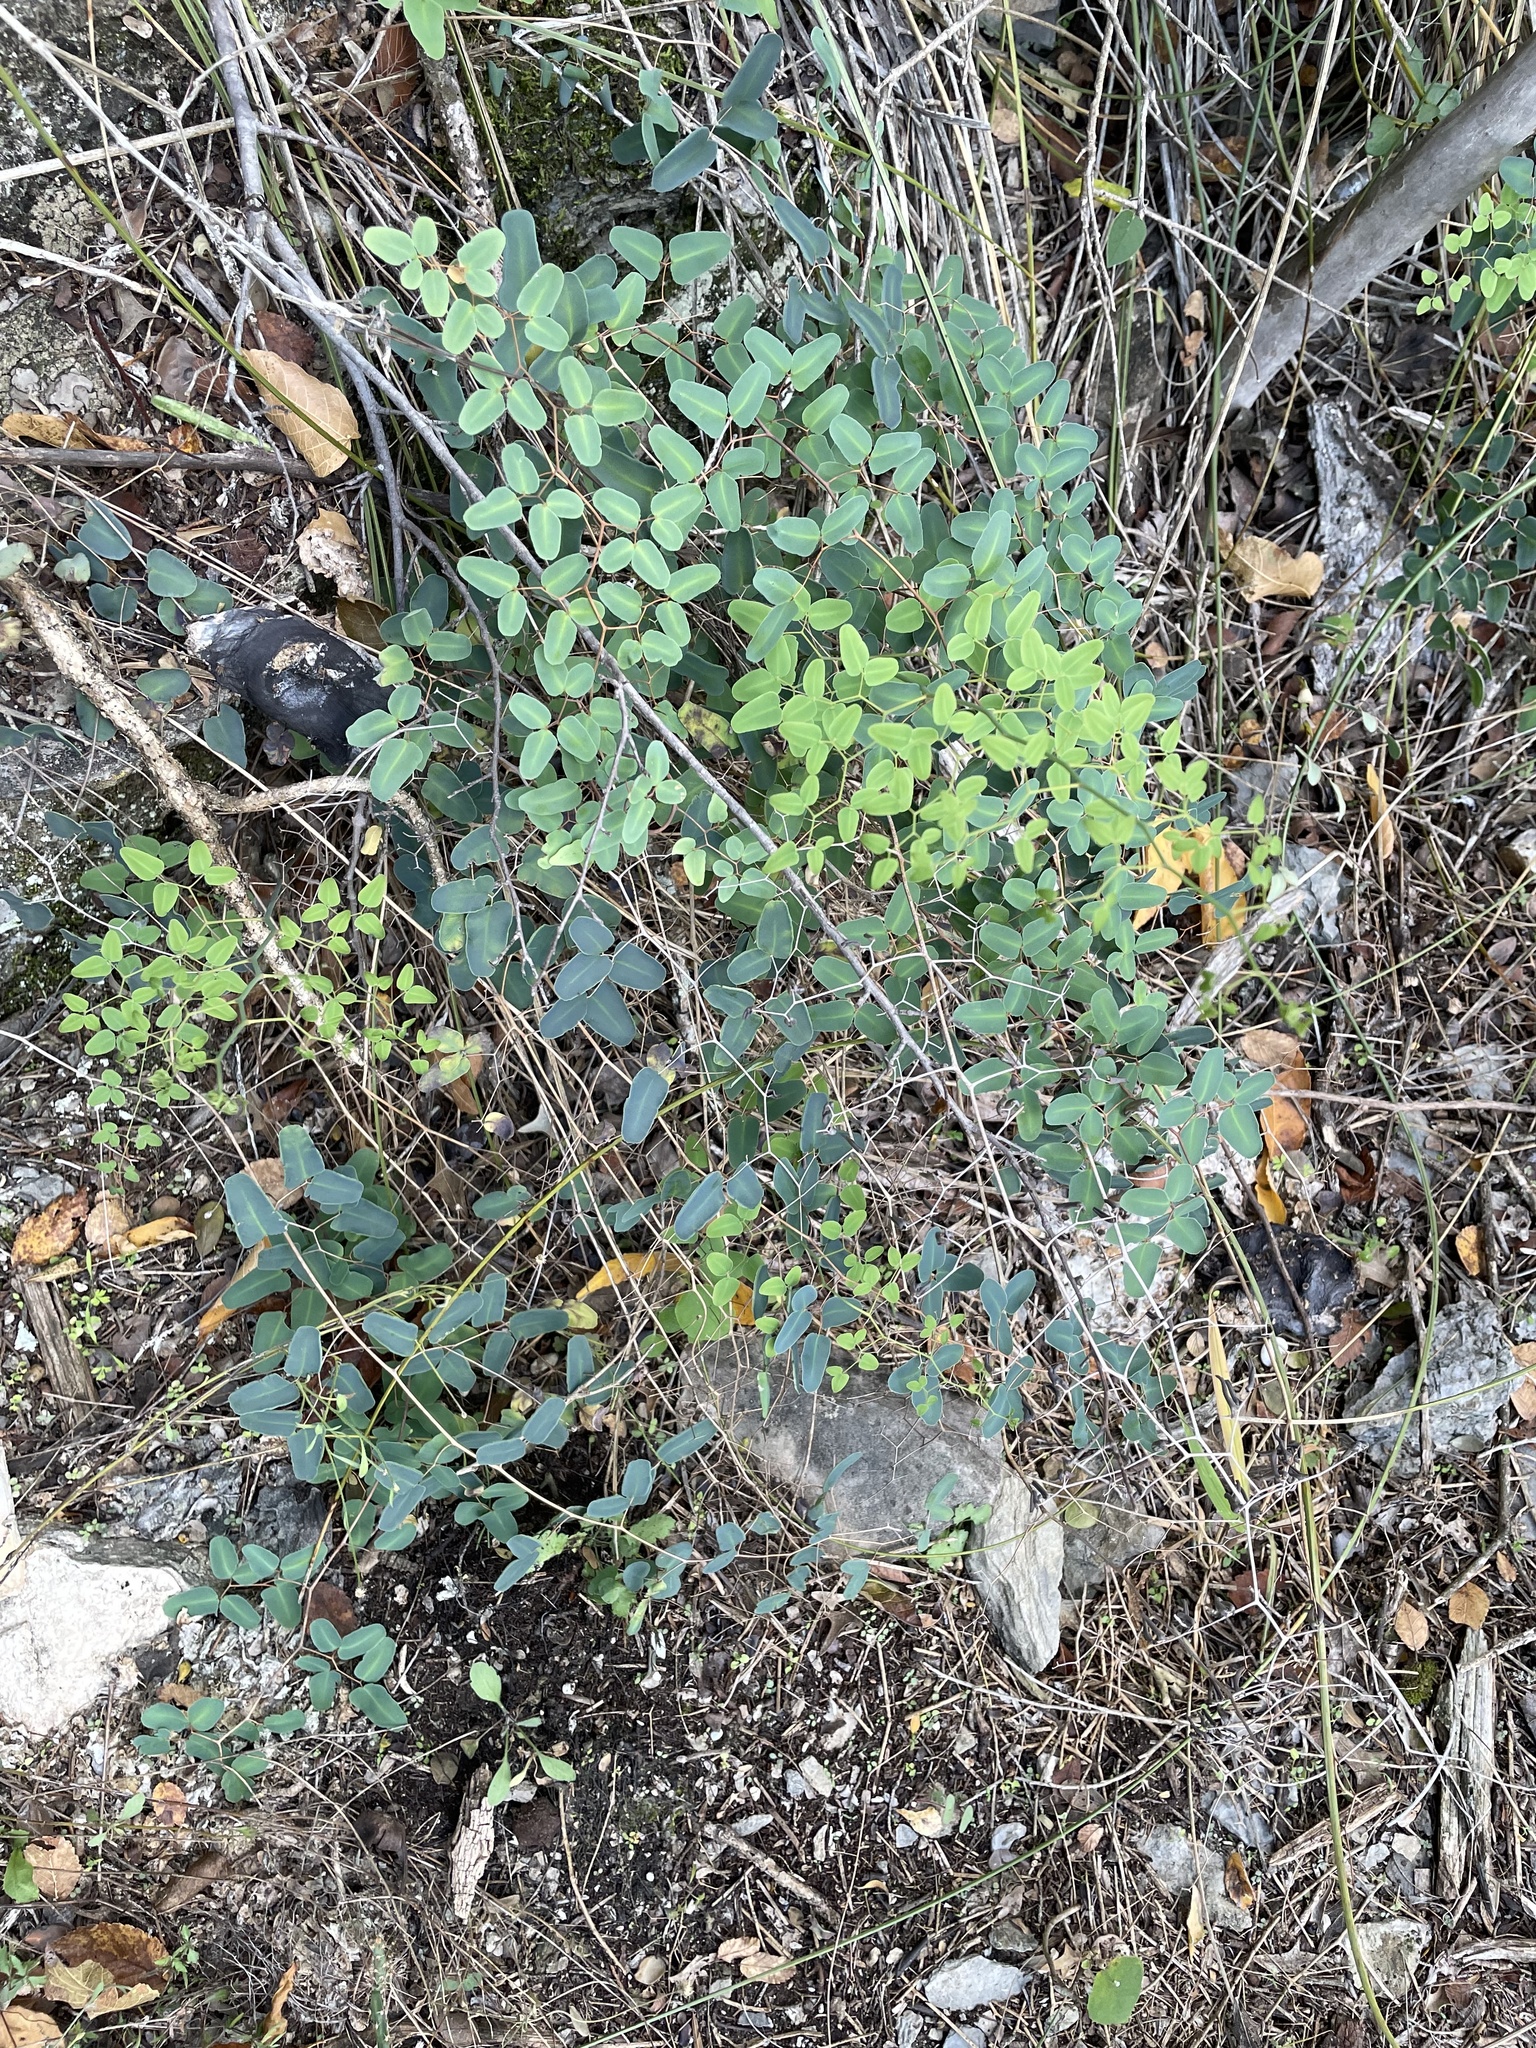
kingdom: Plantae
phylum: Tracheophyta
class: Polypodiopsida
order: Polypodiales
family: Pteridaceae
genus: Pellaea
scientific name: Pellaea ovata
